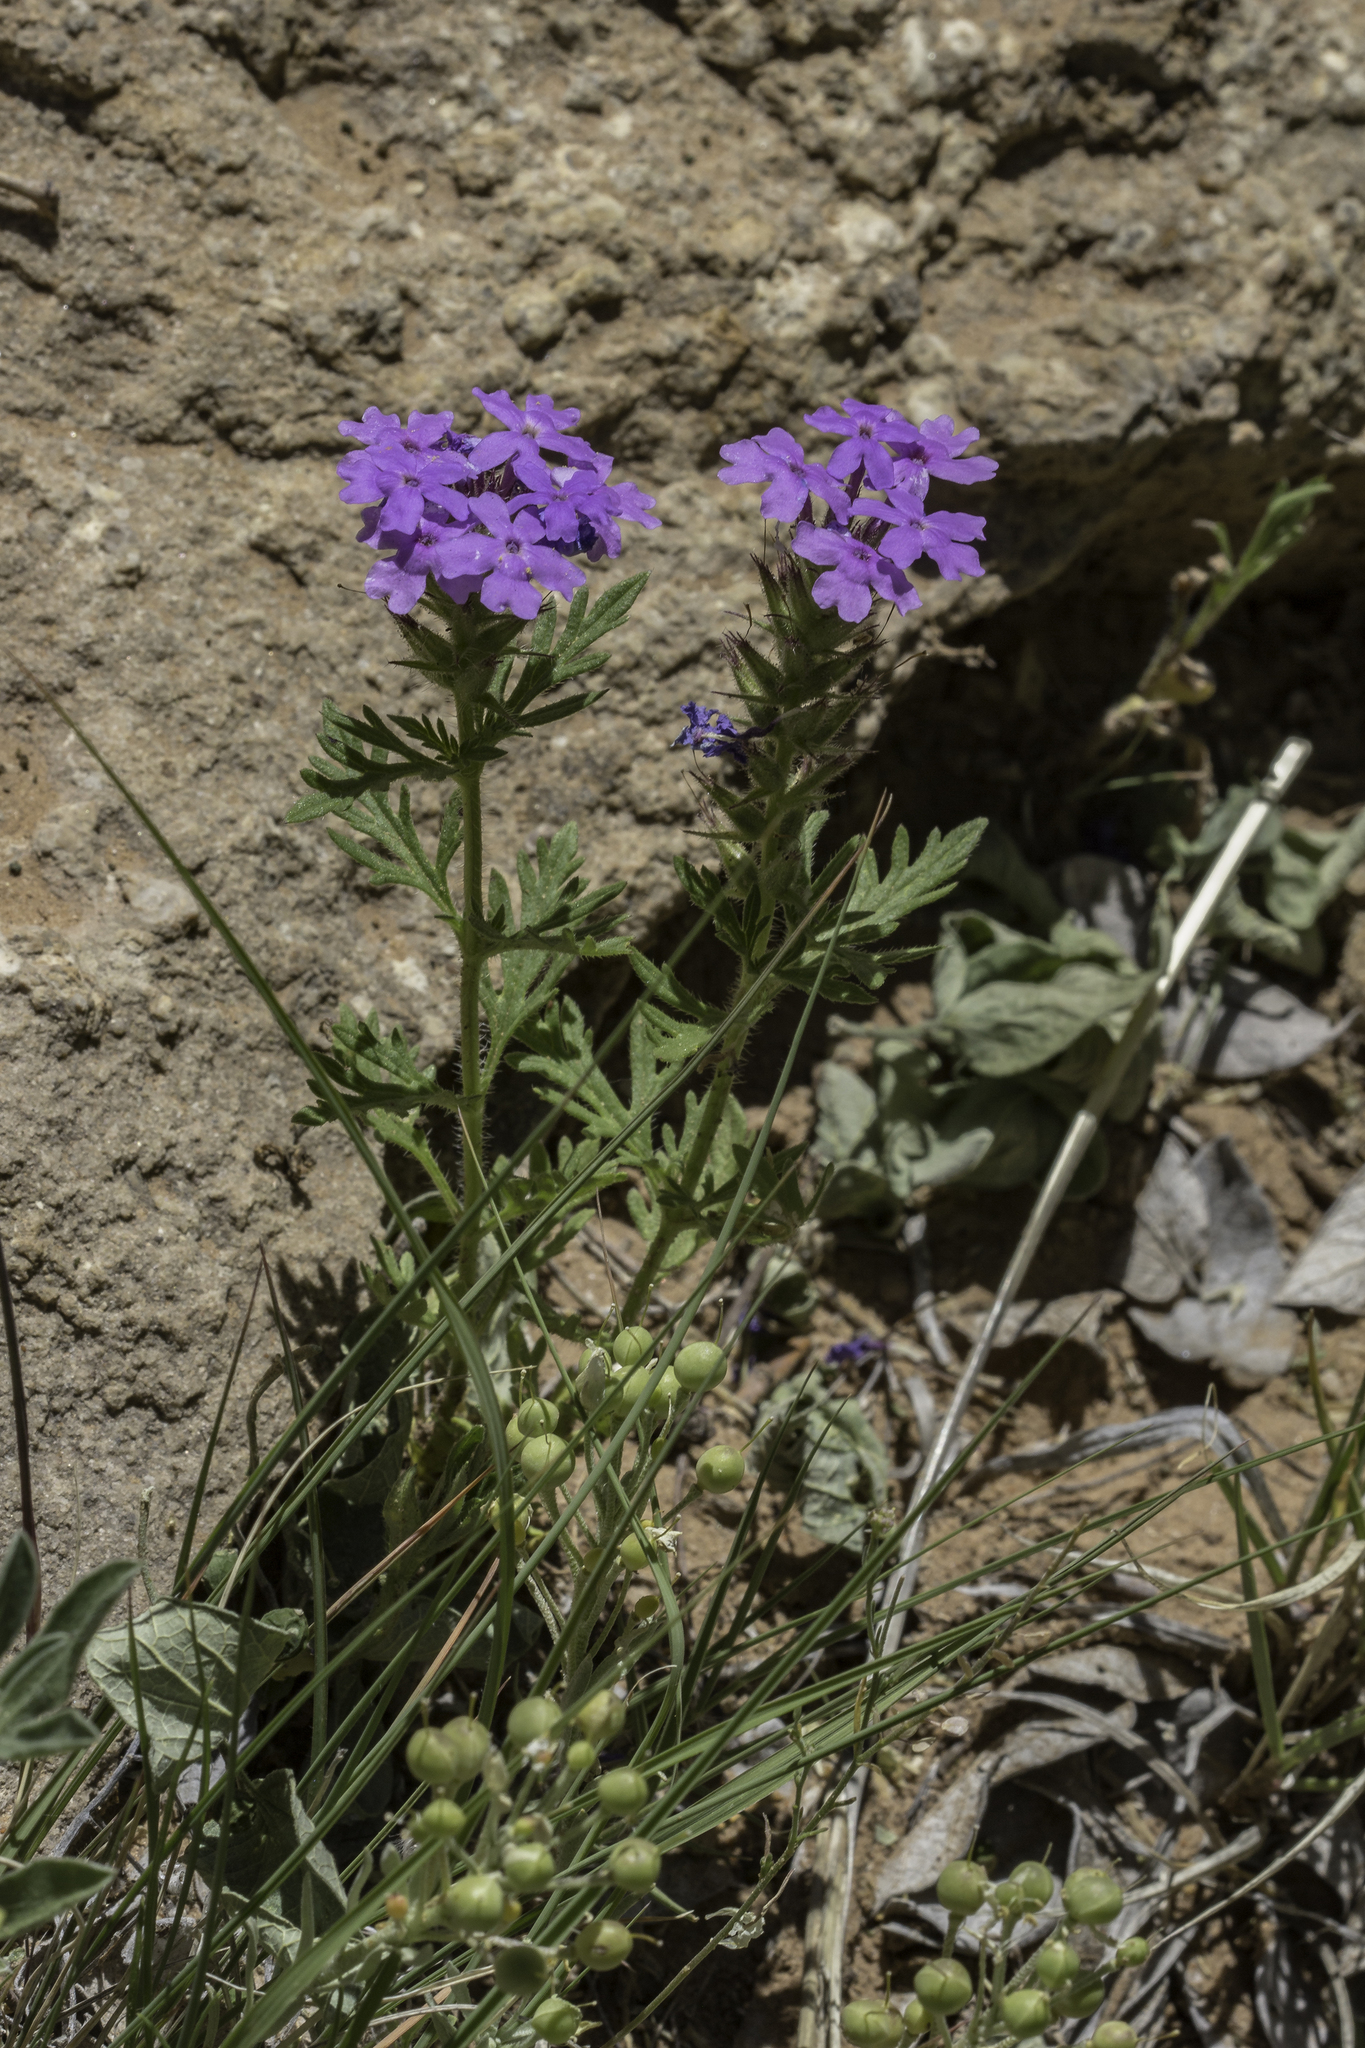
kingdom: Plantae
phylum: Tracheophyta
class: Magnoliopsida
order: Lamiales
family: Verbenaceae
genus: Verbena
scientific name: Verbena bipinnatifida
